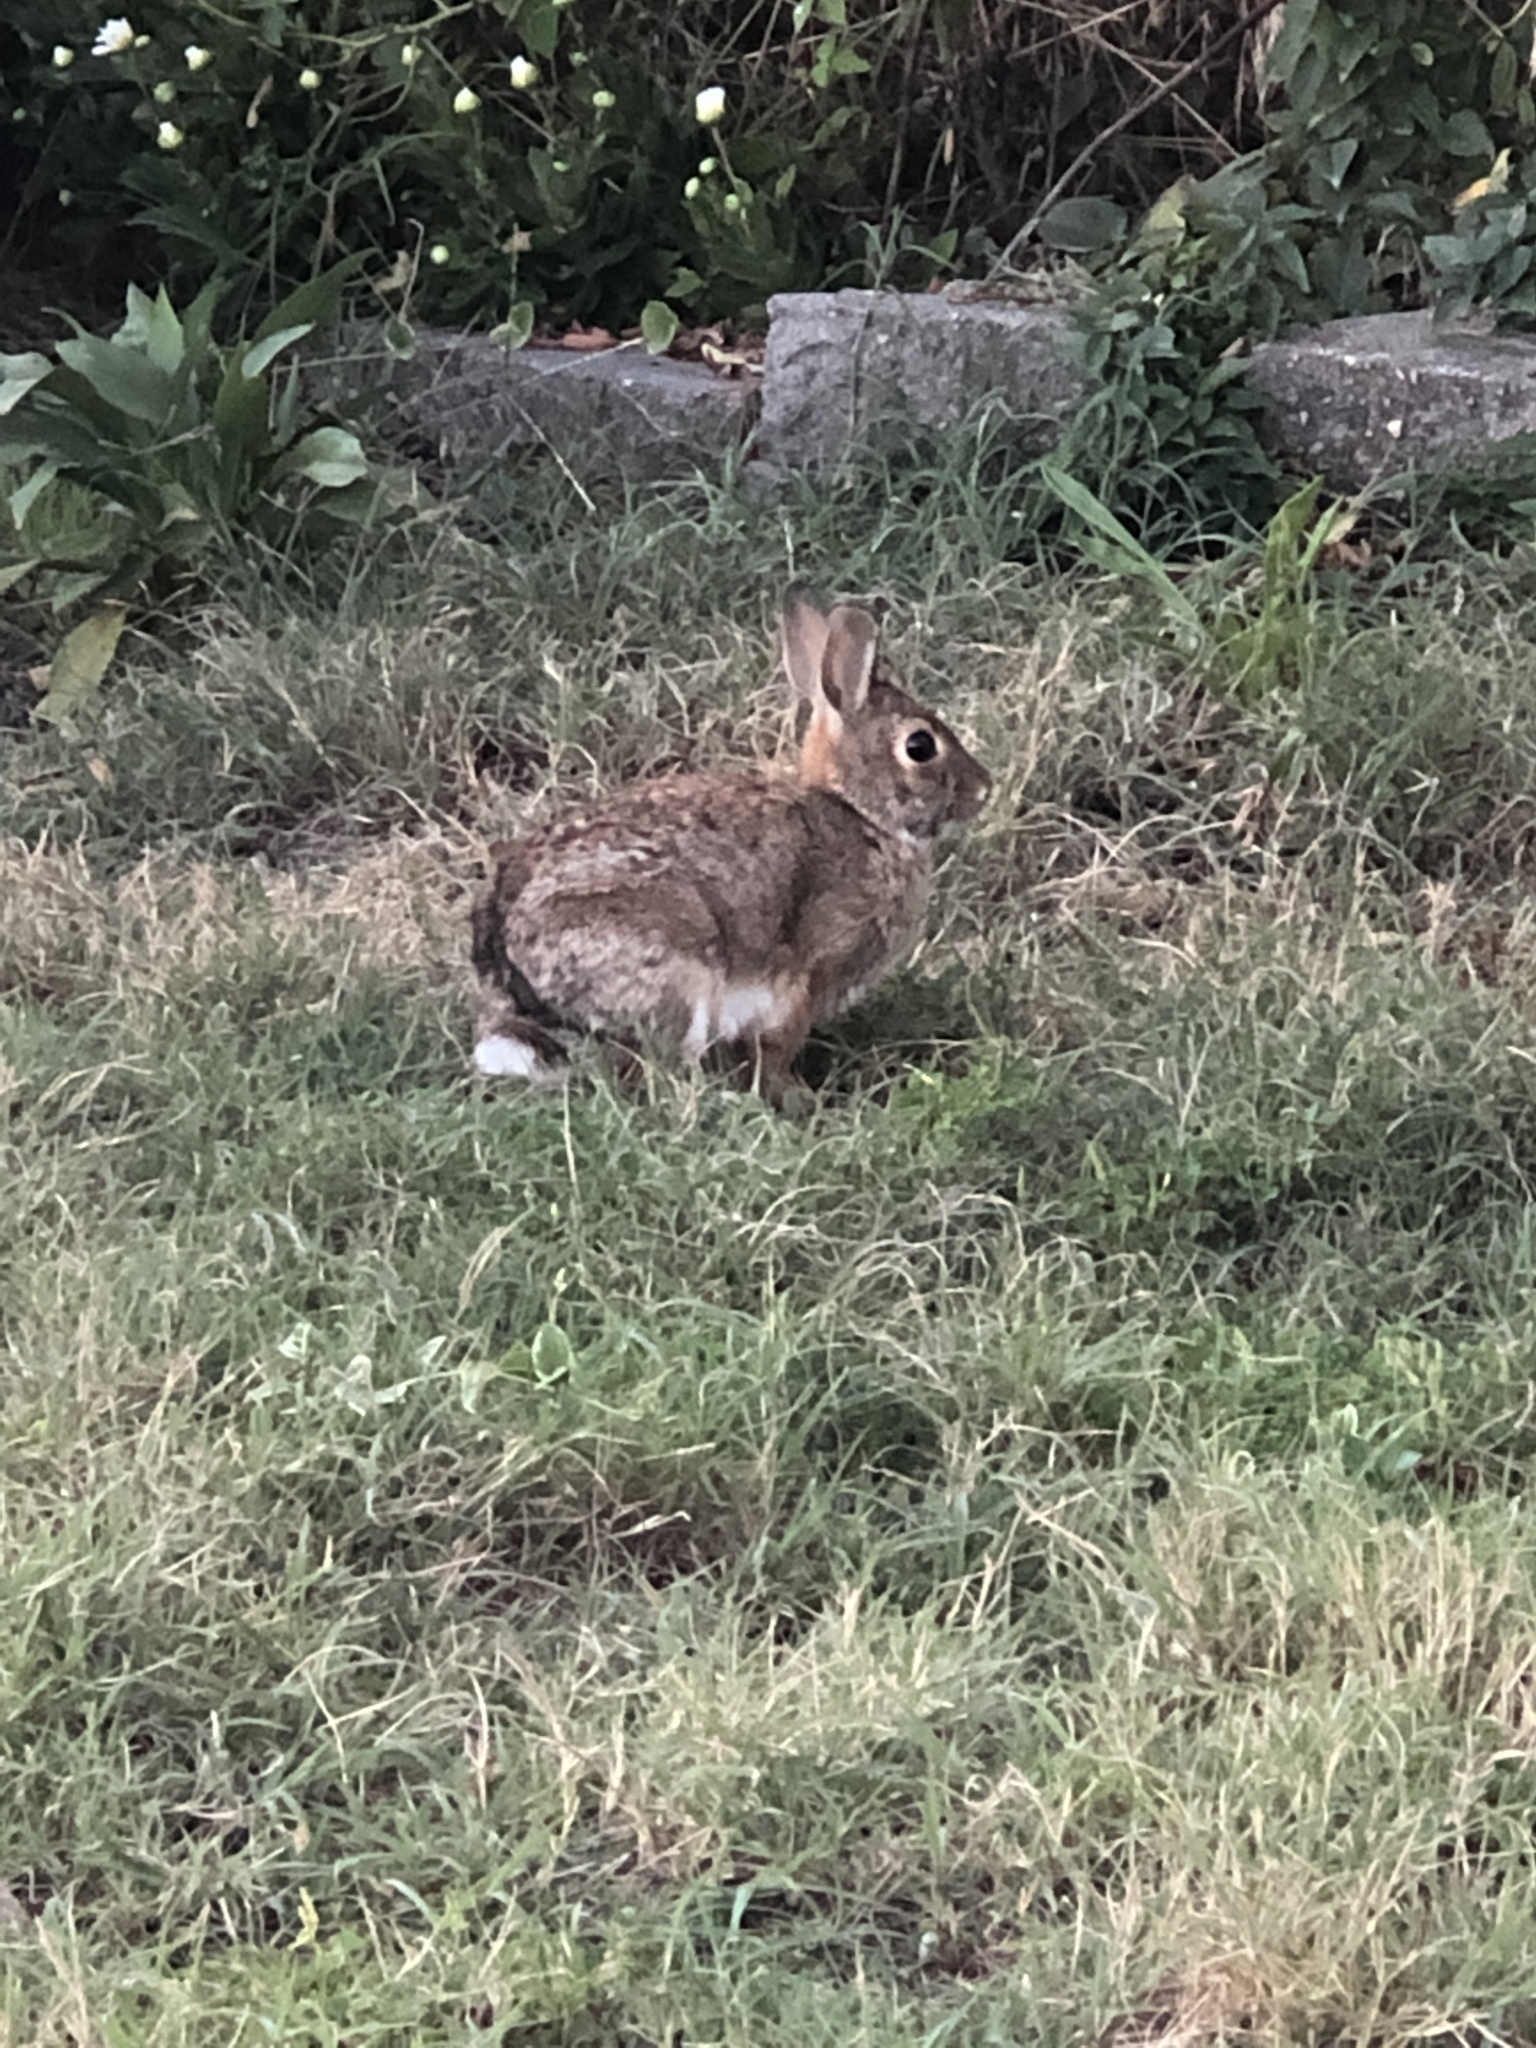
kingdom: Animalia
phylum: Chordata
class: Mammalia
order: Lagomorpha
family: Leporidae
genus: Sylvilagus
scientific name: Sylvilagus floridanus
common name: Eastern cottontail
